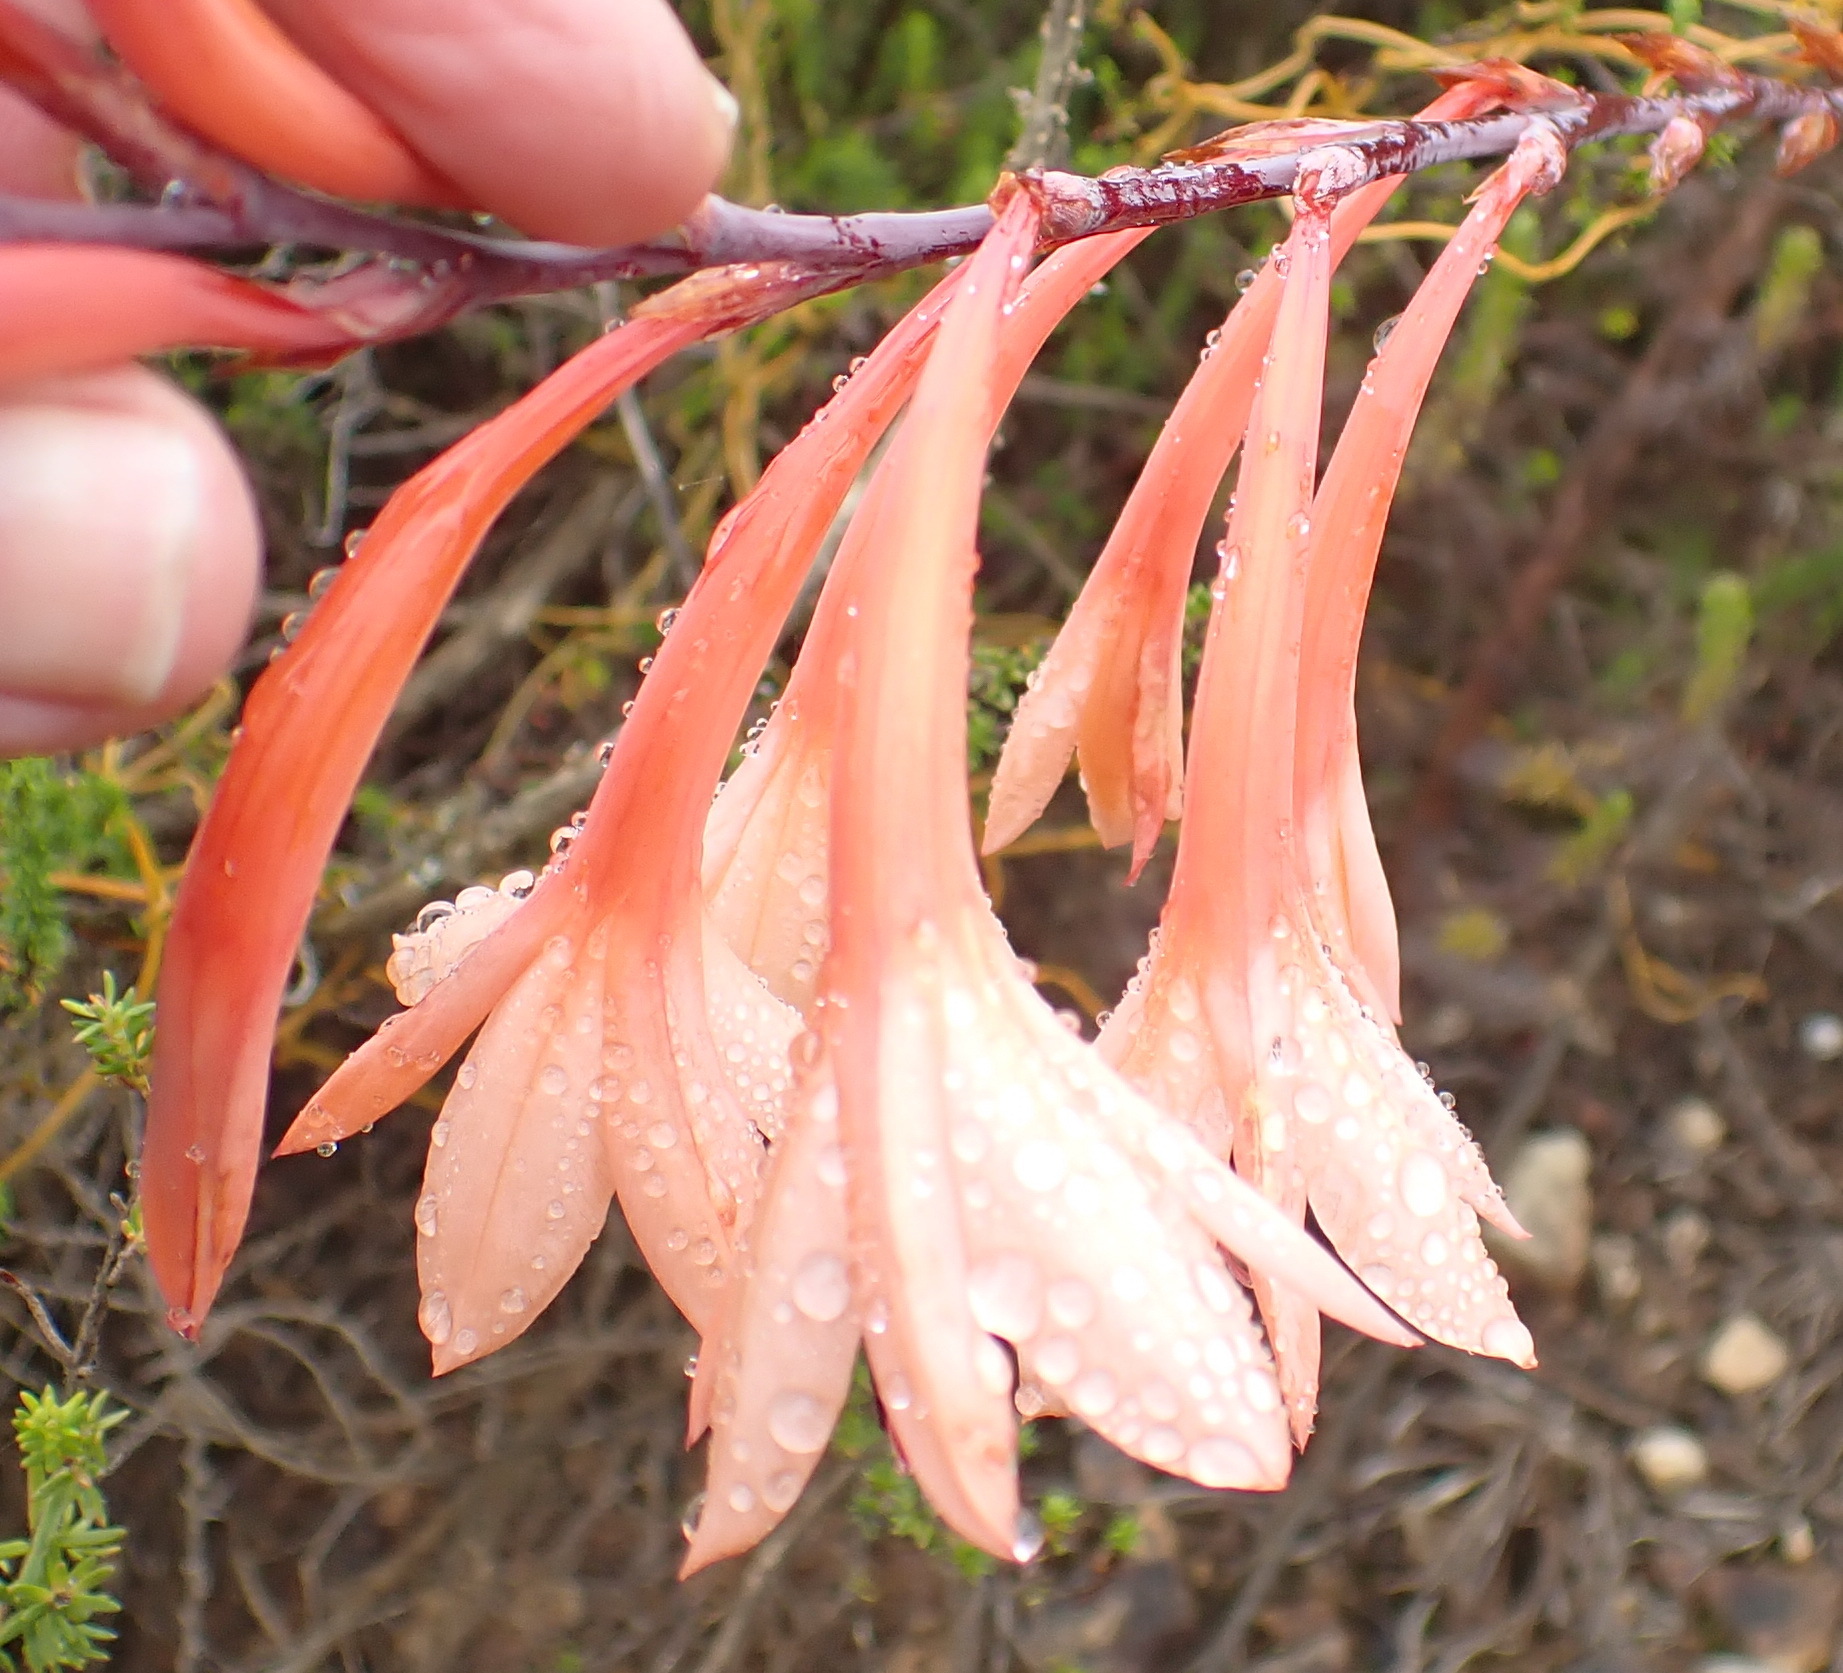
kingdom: Plantae
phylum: Tracheophyta
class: Liliopsida
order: Asparagales
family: Iridaceae
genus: Watsonia
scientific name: Watsonia fourcadei
